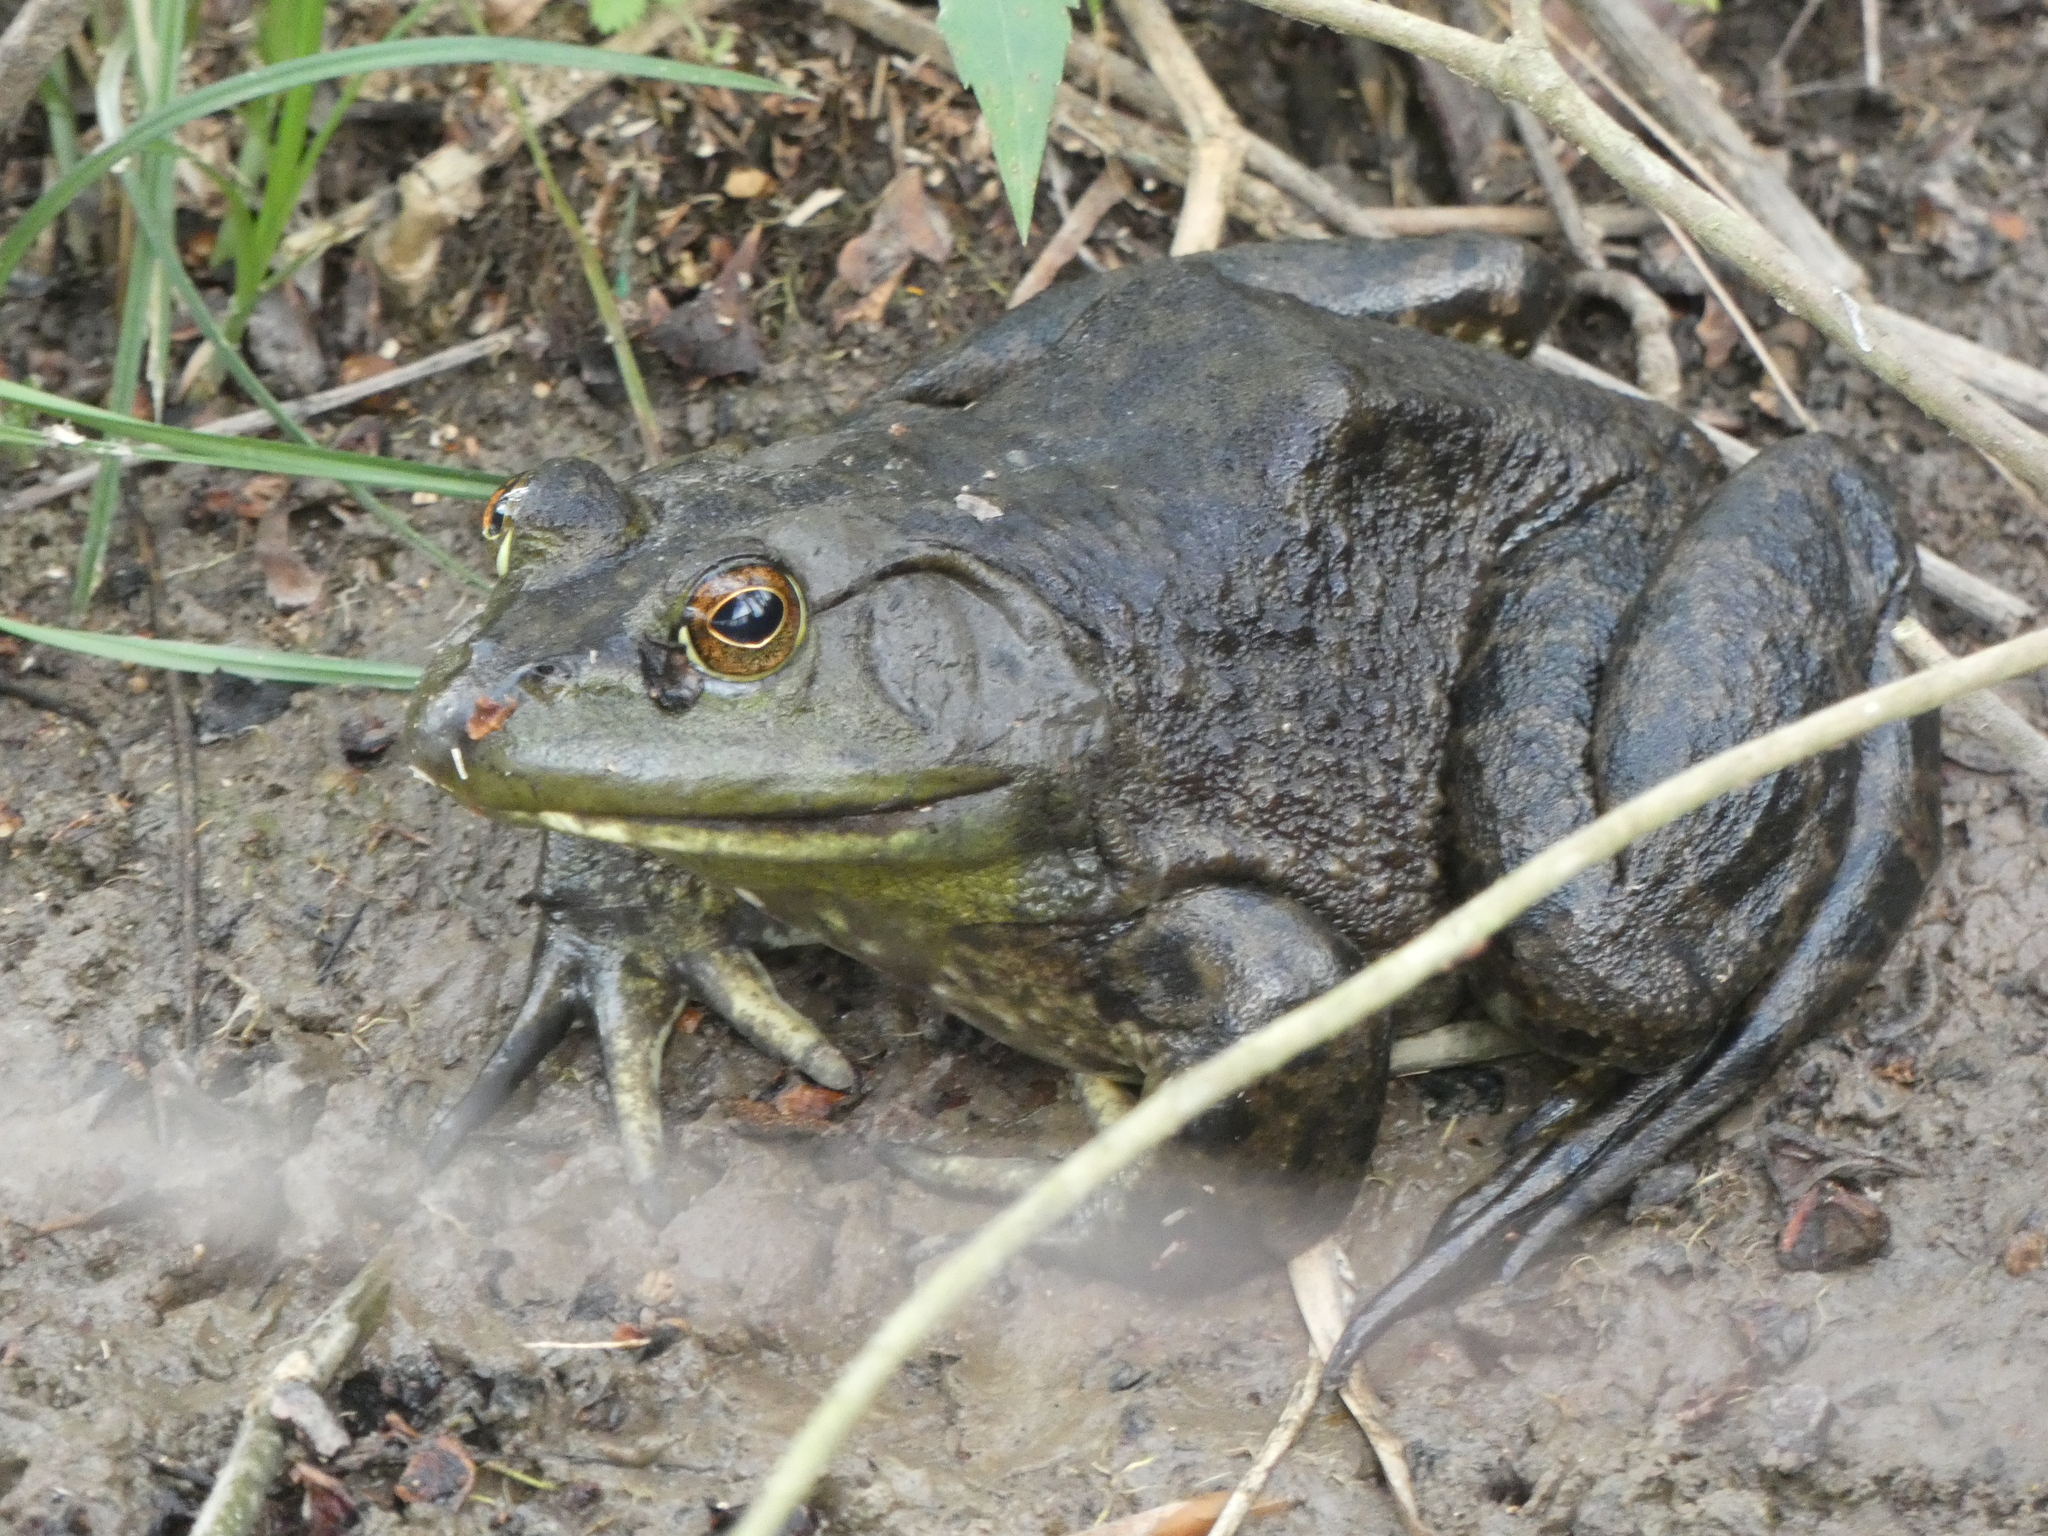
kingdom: Animalia
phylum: Chordata
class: Amphibia
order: Anura
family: Ranidae
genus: Lithobates
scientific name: Lithobates catesbeianus
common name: American bullfrog
